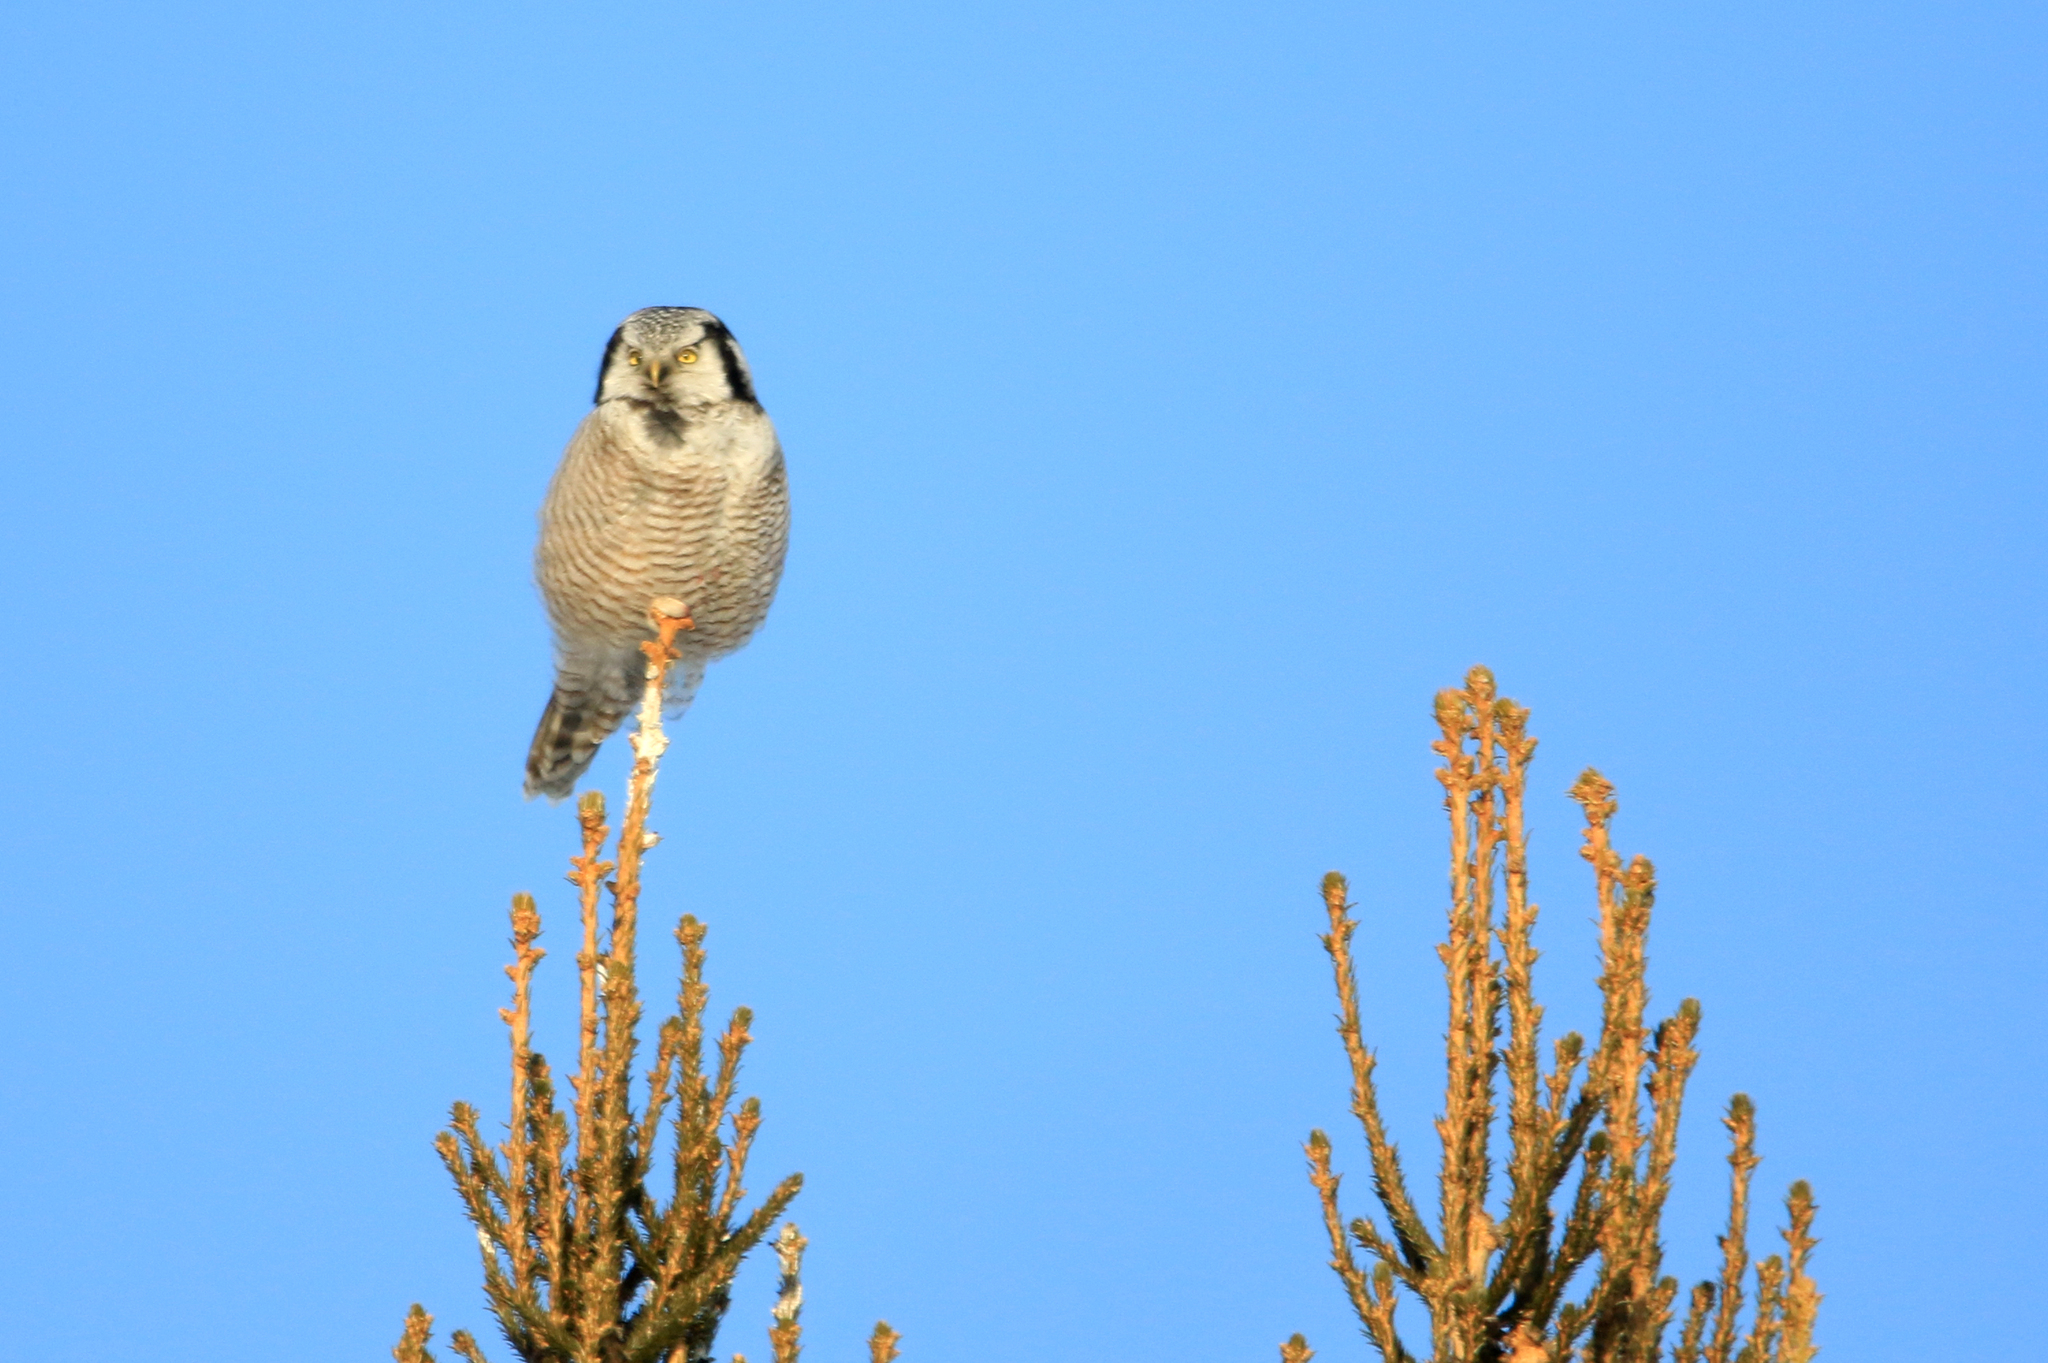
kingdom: Animalia
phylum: Chordata
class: Aves
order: Strigiformes
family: Strigidae
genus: Surnia
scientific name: Surnia ulula
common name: Northern hawk-owl
